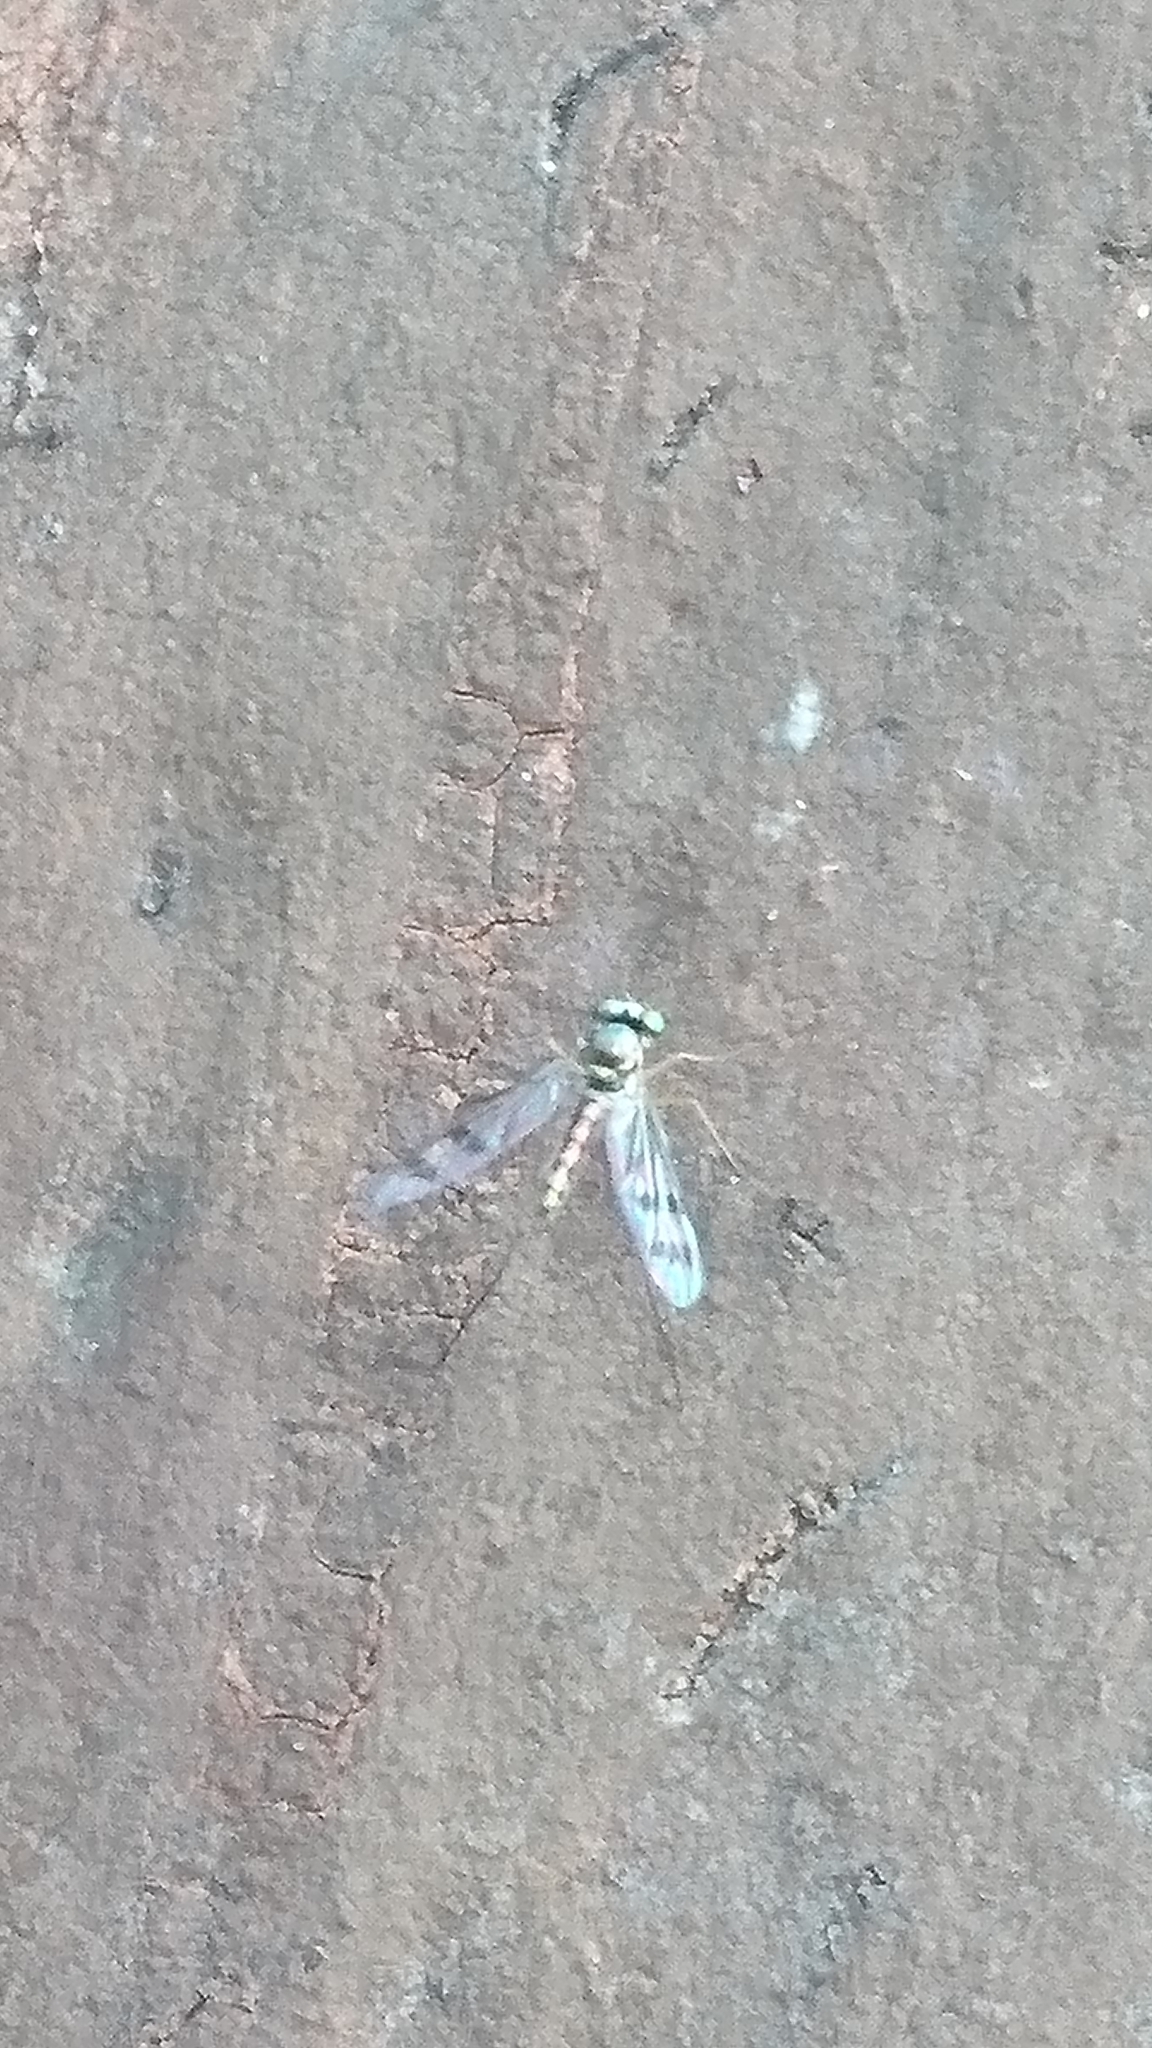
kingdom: Animalia
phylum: Arthropoda
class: Insecta
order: Diptera
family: Dolichopodidae
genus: Heteropsilopus
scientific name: Heteropsilopus squamifer
